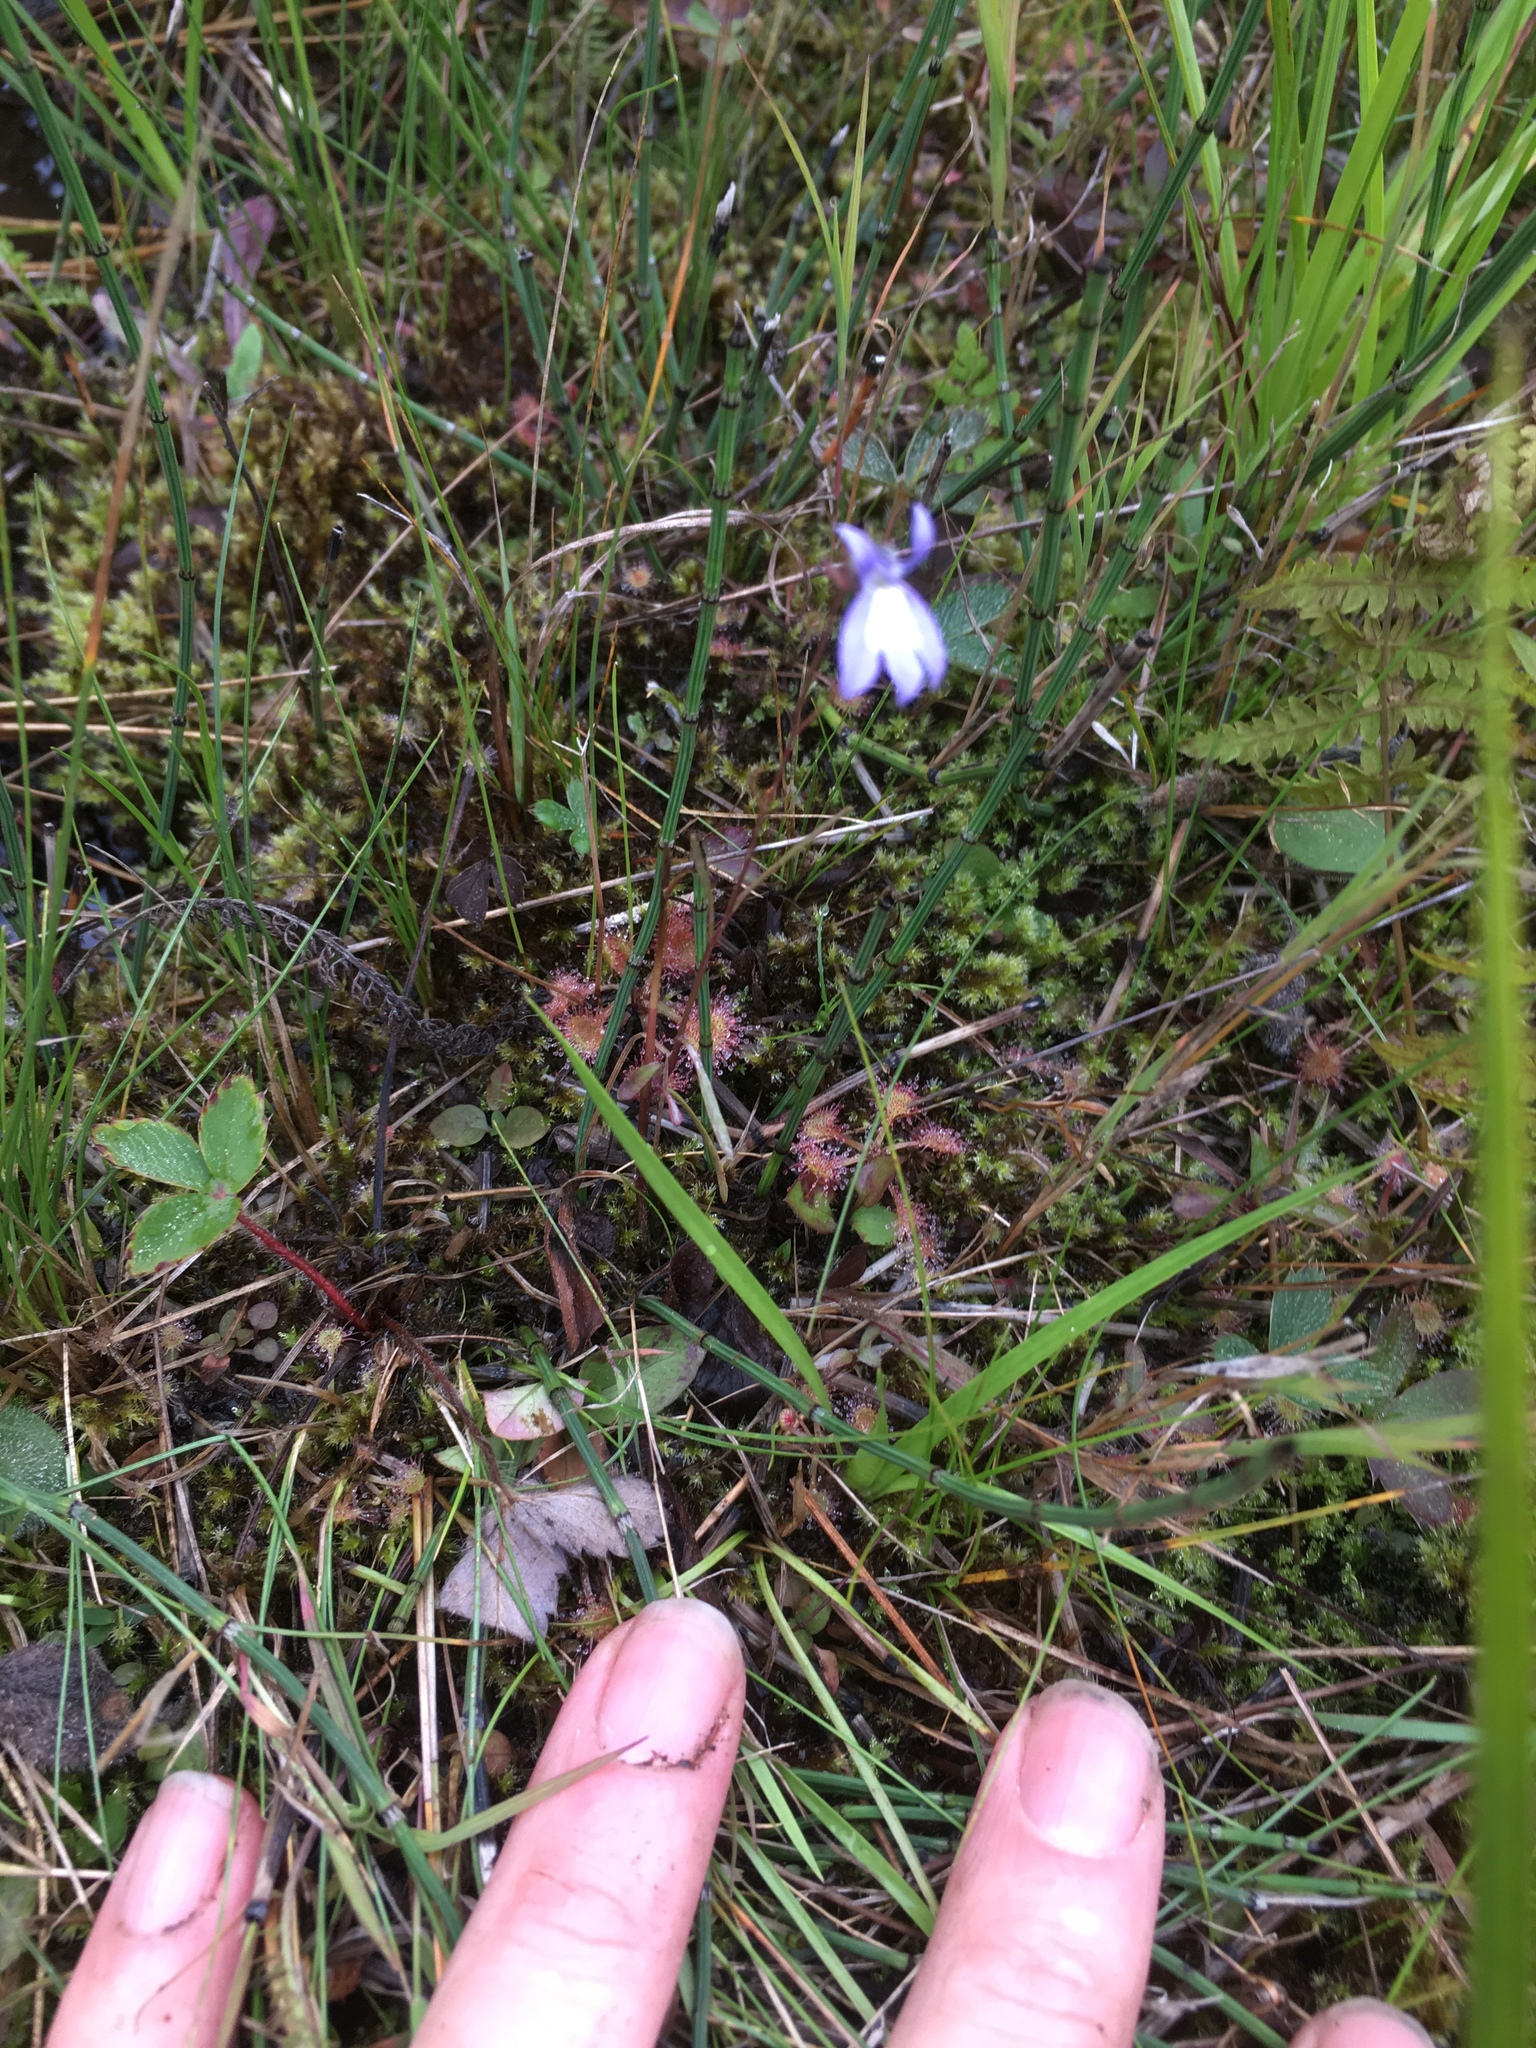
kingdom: Plantae
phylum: Tracheophyta
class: Magnoliopsida
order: Asterales
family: Campanulaceae
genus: Lobelia
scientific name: Lobelia kalmii
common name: Kalm's lobelia
